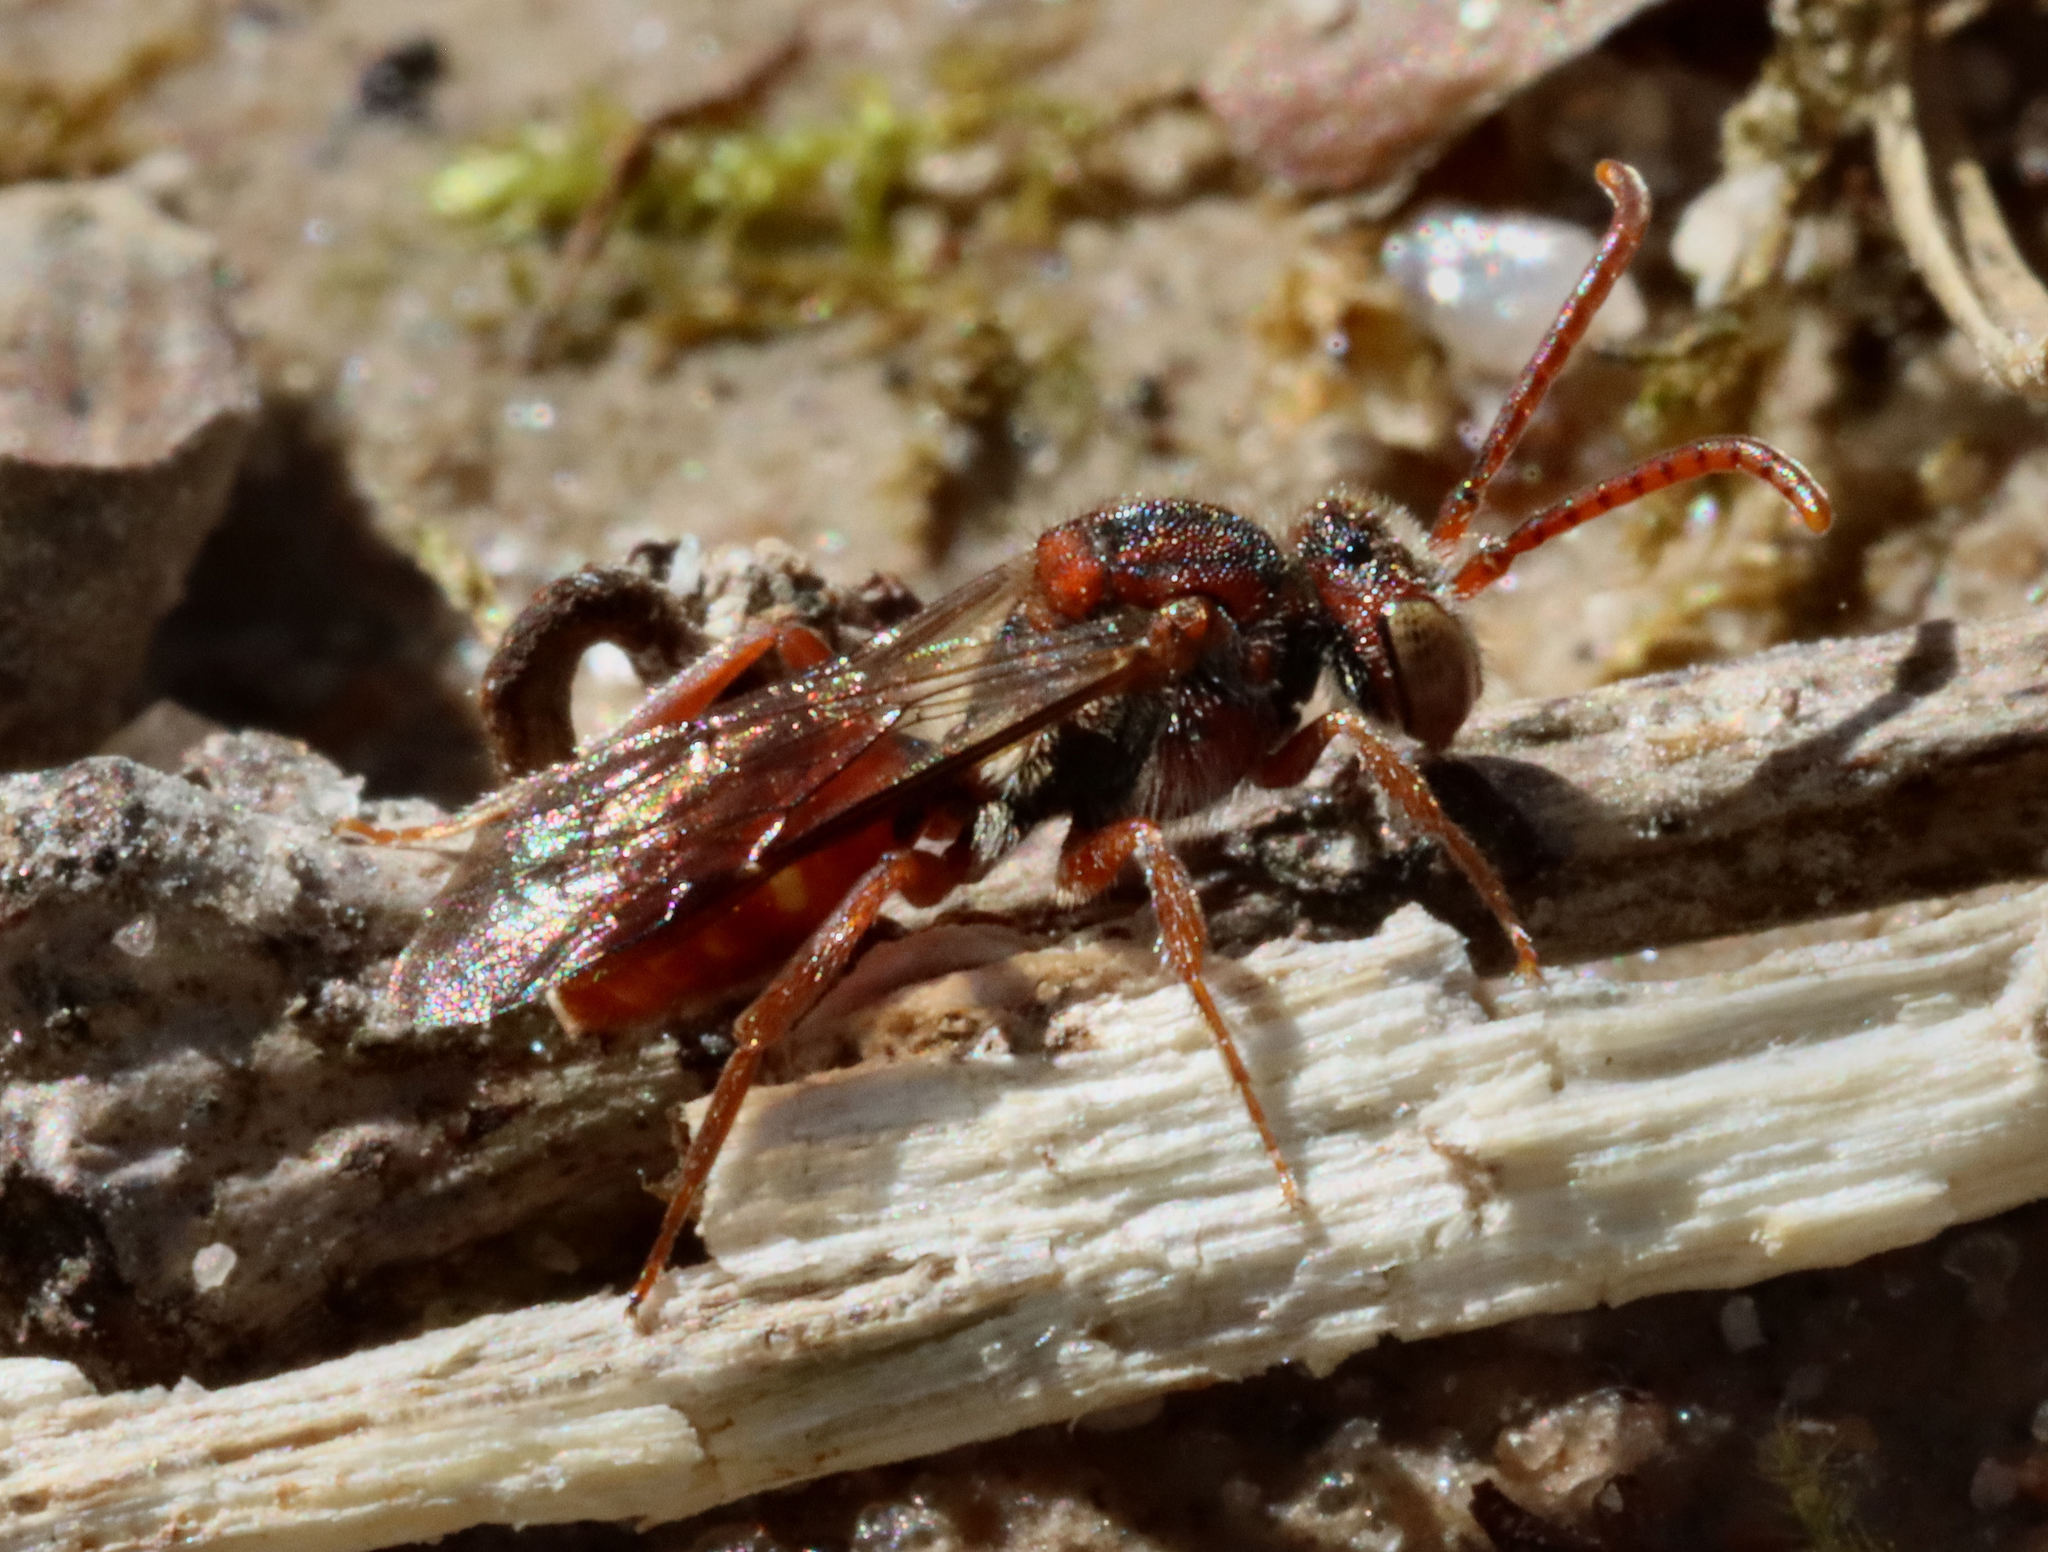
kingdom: Animalia
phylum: Arthropoda
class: Insecta
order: Hymenoptera
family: Apidae
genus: Nomada
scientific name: Nomada
